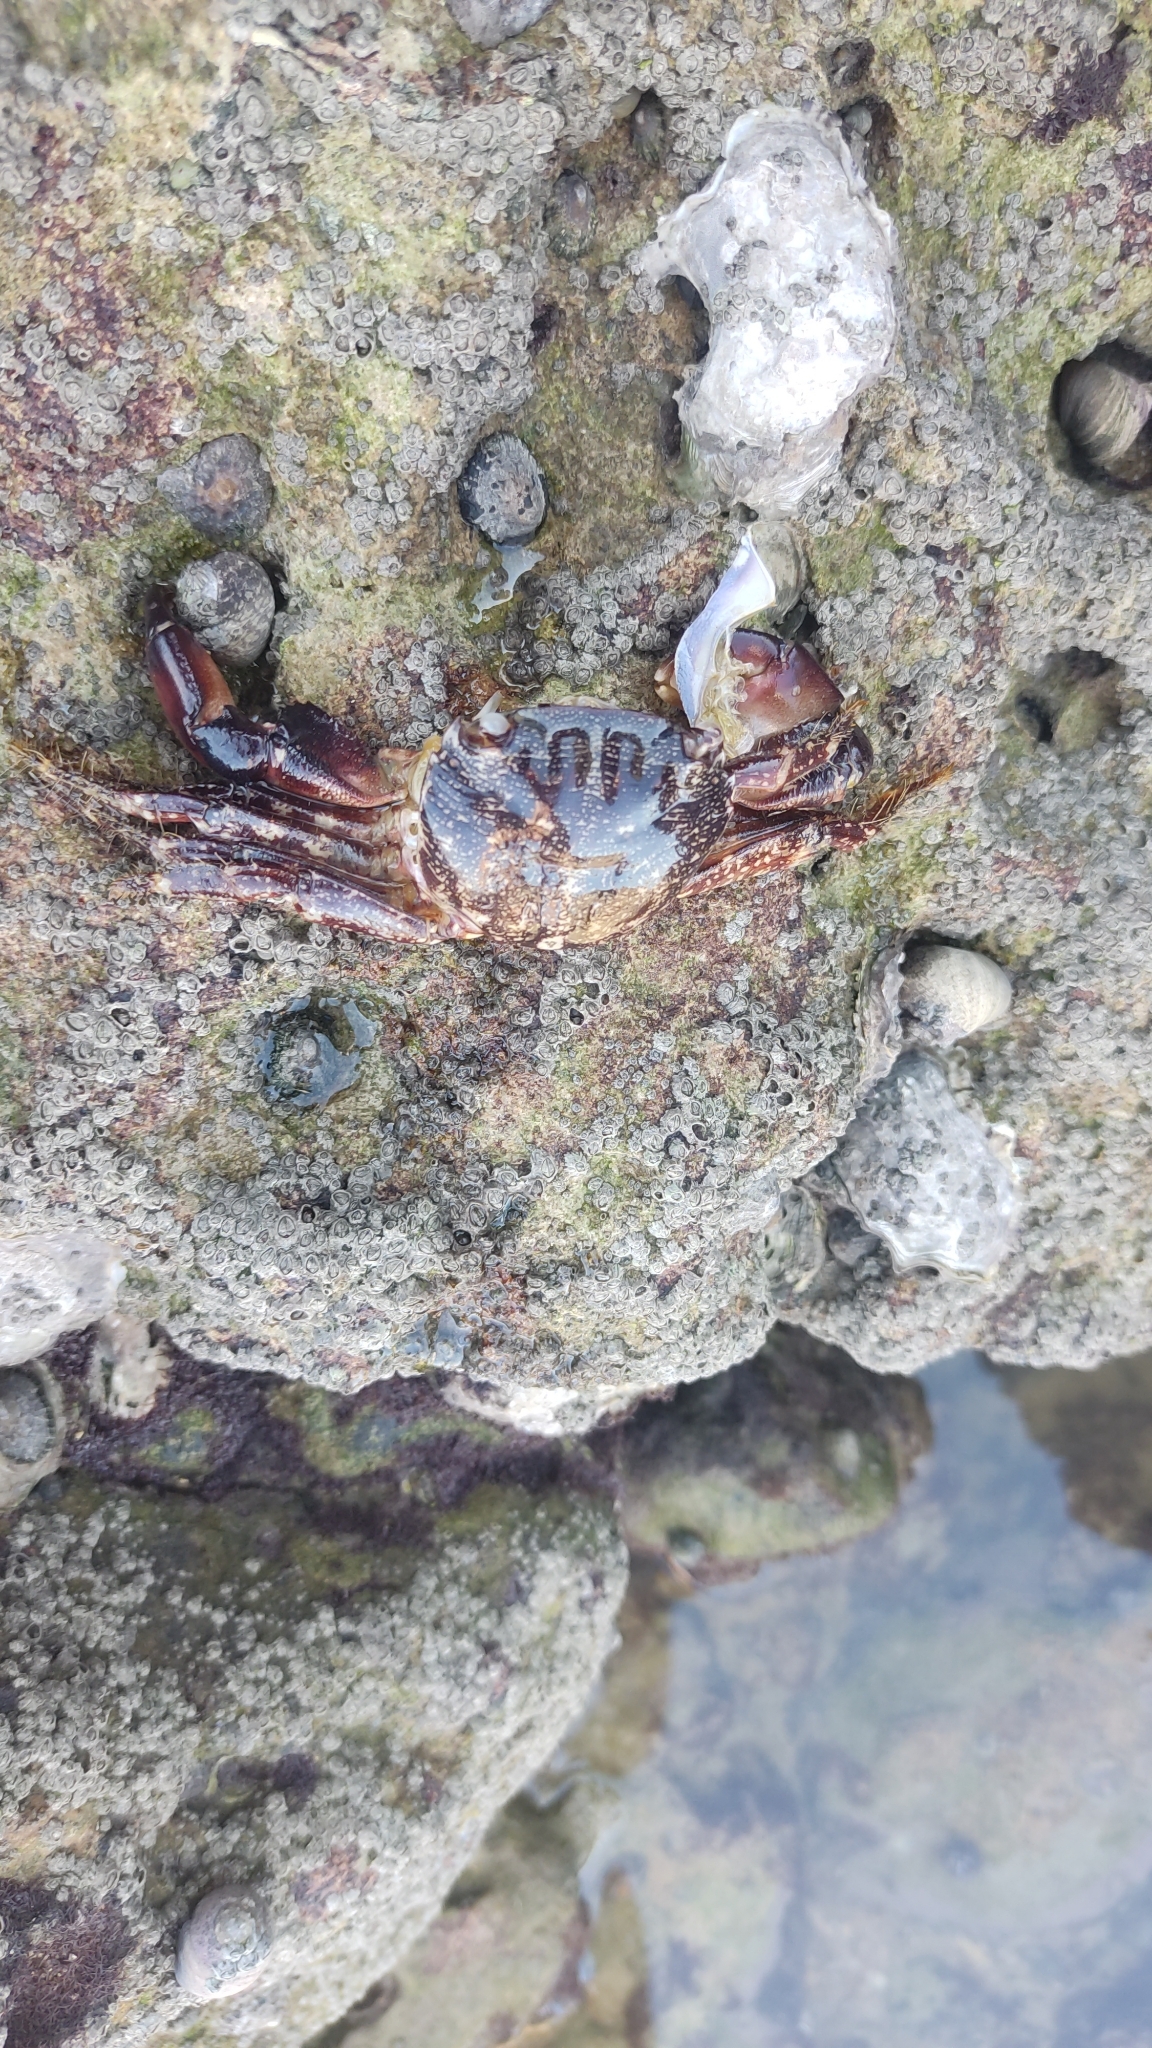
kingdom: Animalia
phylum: Arthropoda
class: Malacostraca
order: Decapoda
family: Grapsidae
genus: Pachygrapsus
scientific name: Pachygrapsus marmoratus
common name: Marbled rock crab
